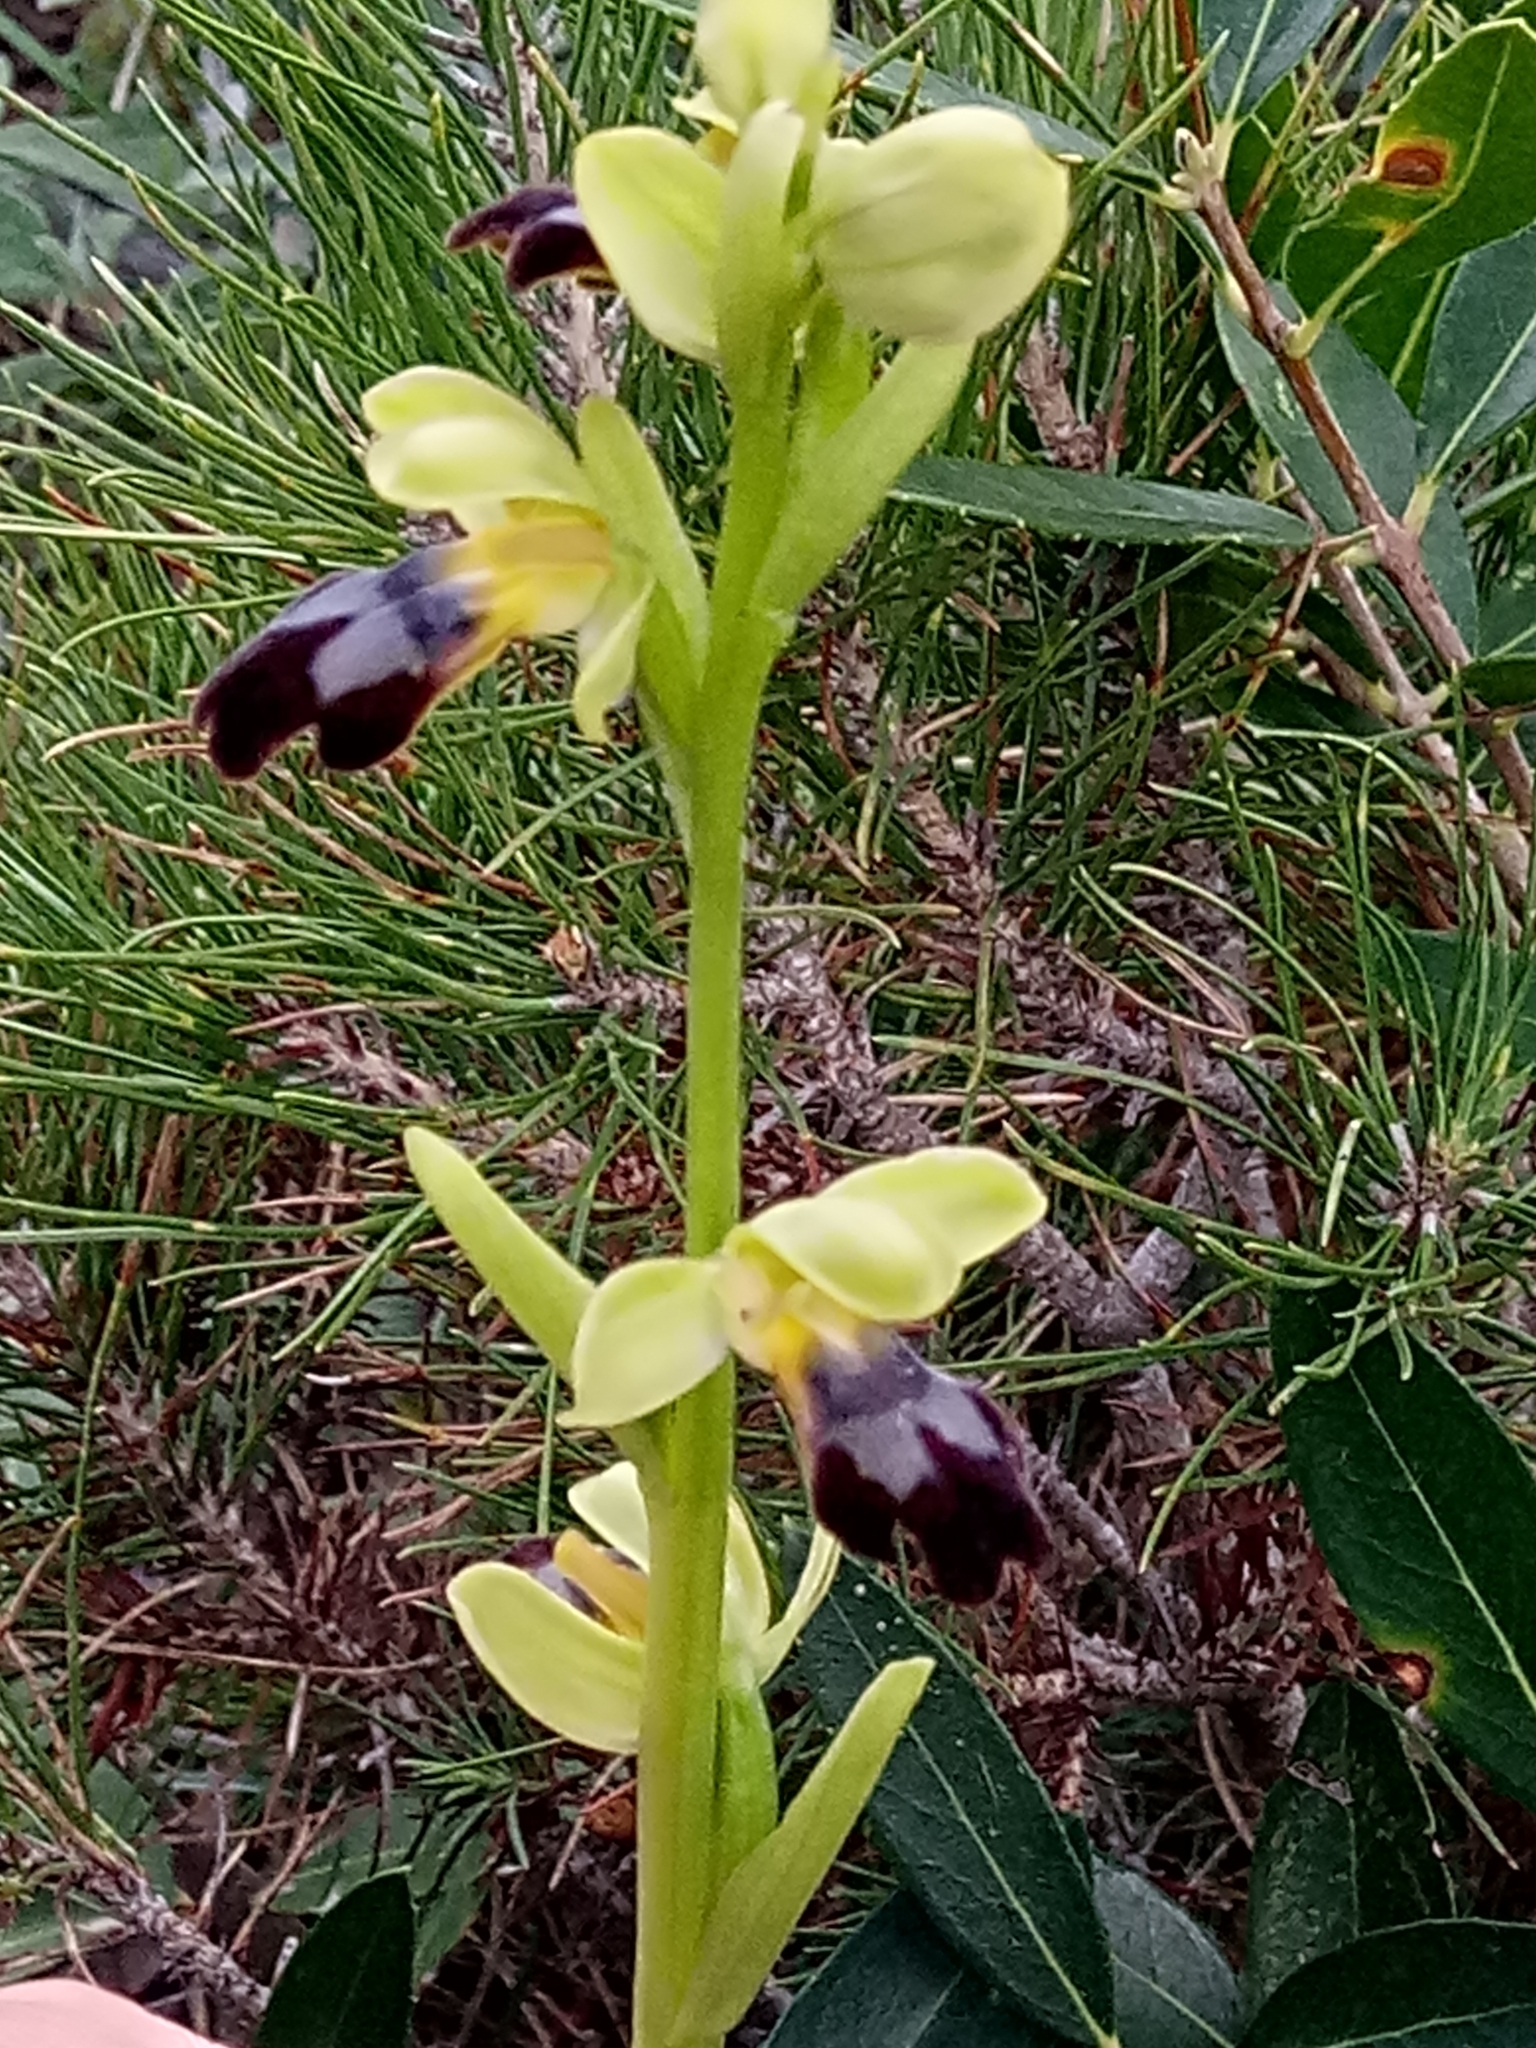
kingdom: Plantae
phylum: Tracheophyta
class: Liliopsida
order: Asparagales
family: Orchidaceae
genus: Ophrys
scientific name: Ophrys fusca
